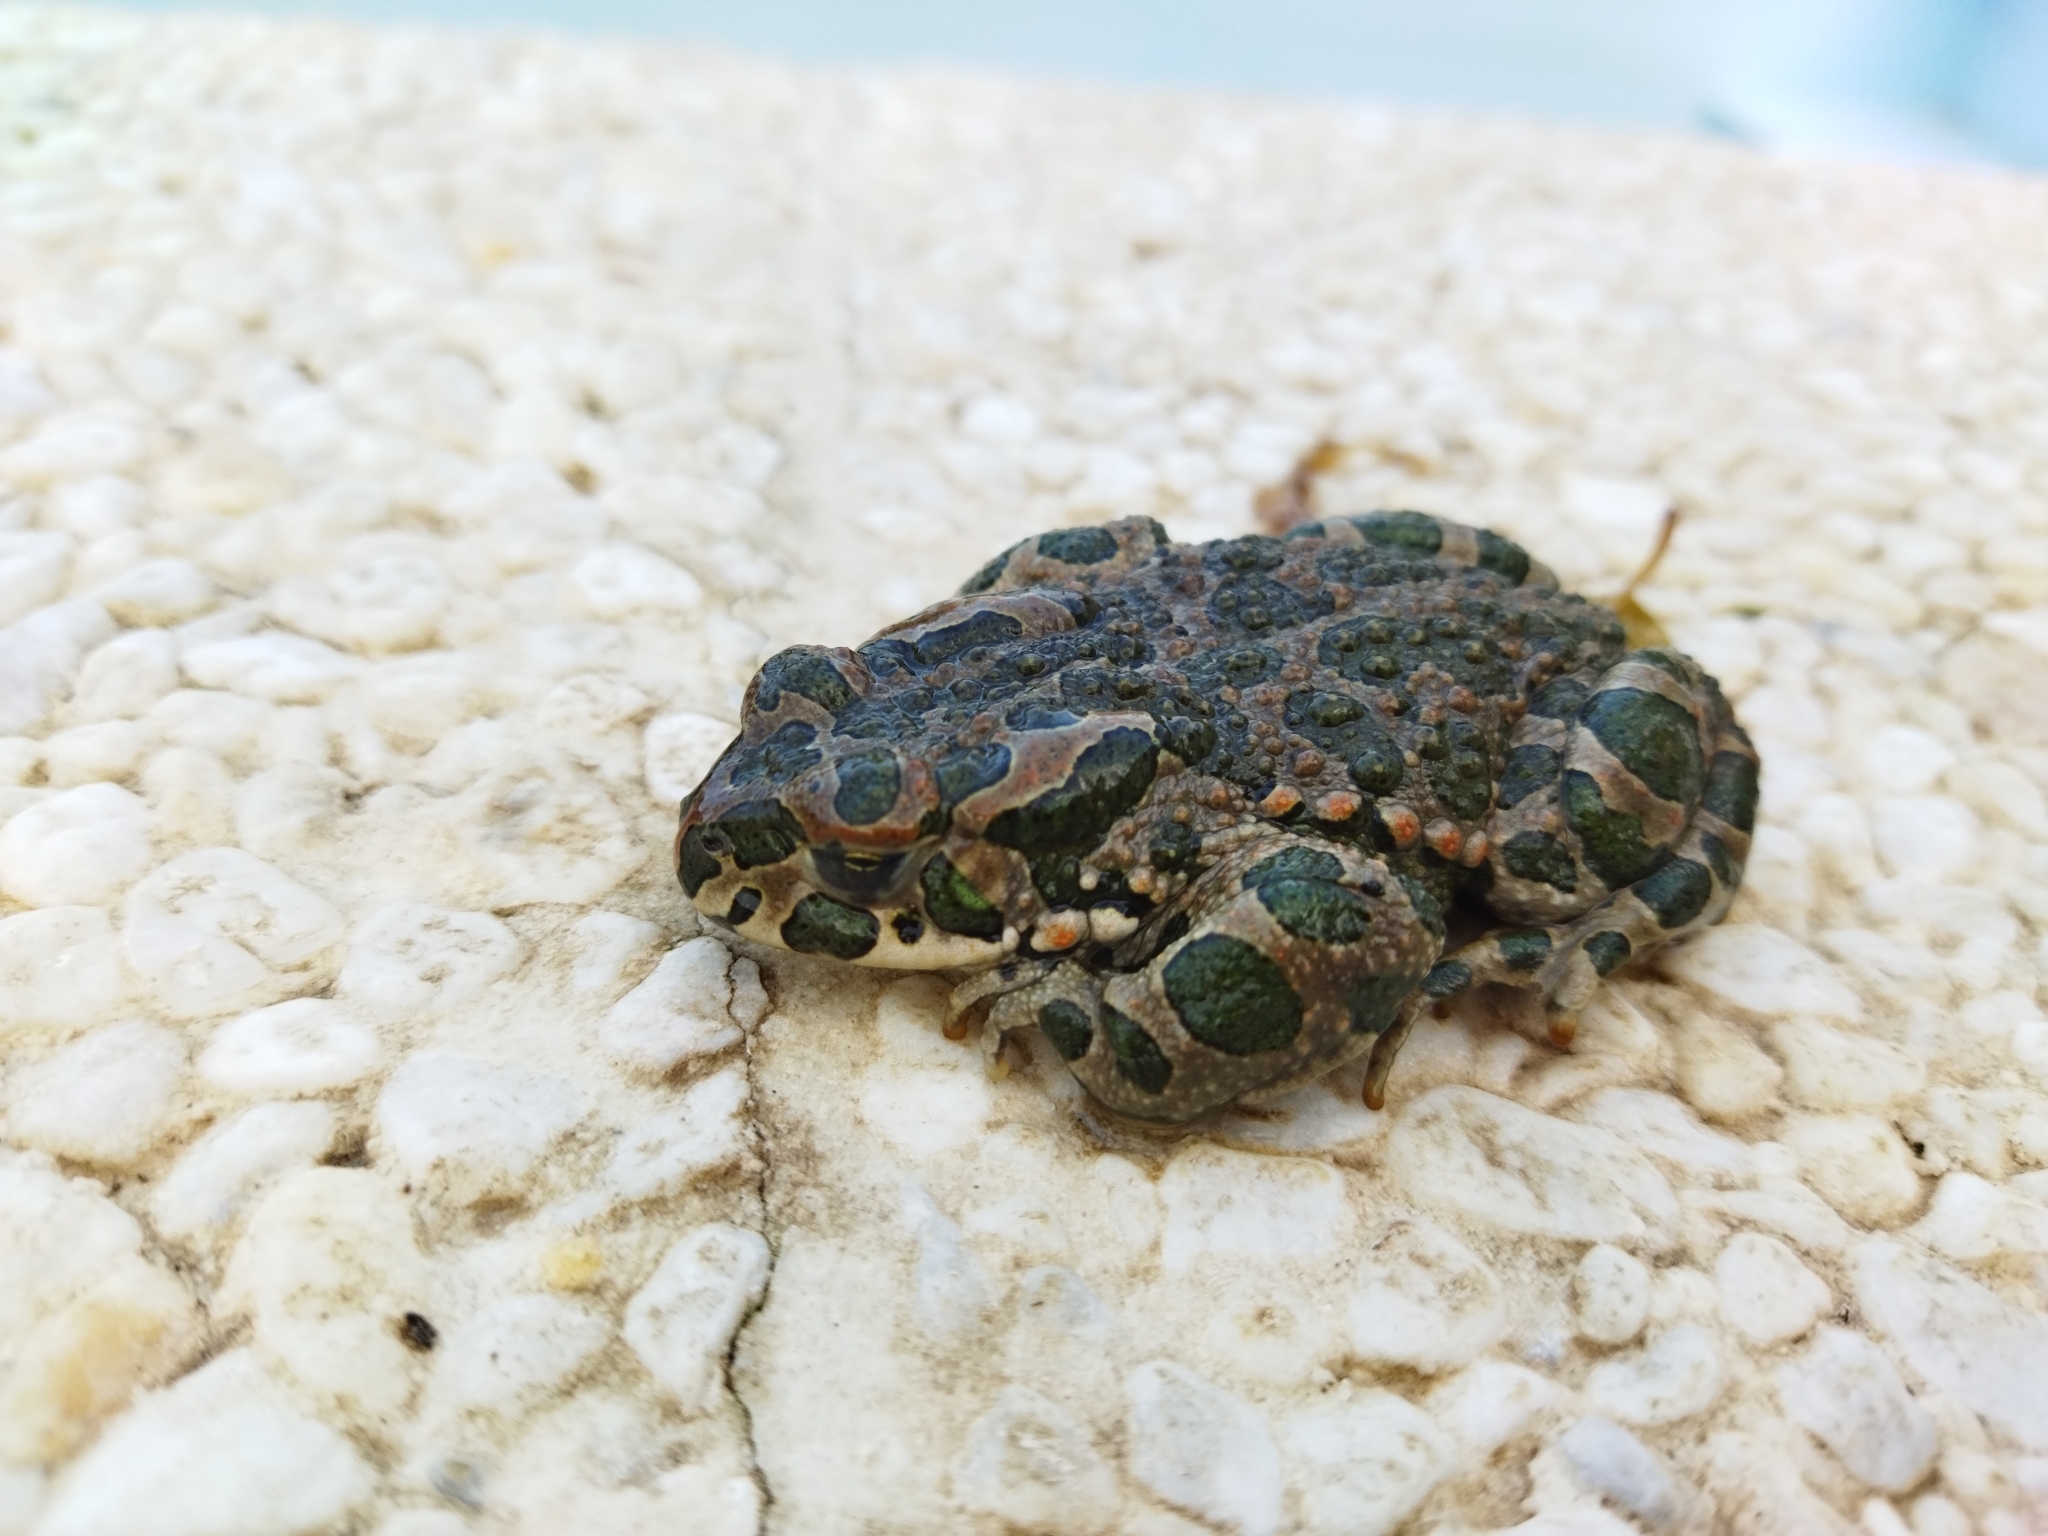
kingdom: Animalia
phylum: Chordata
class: Amphibia
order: Anura
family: Bufonidae
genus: Bufotes
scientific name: Bufotes viridis
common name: European green toad
